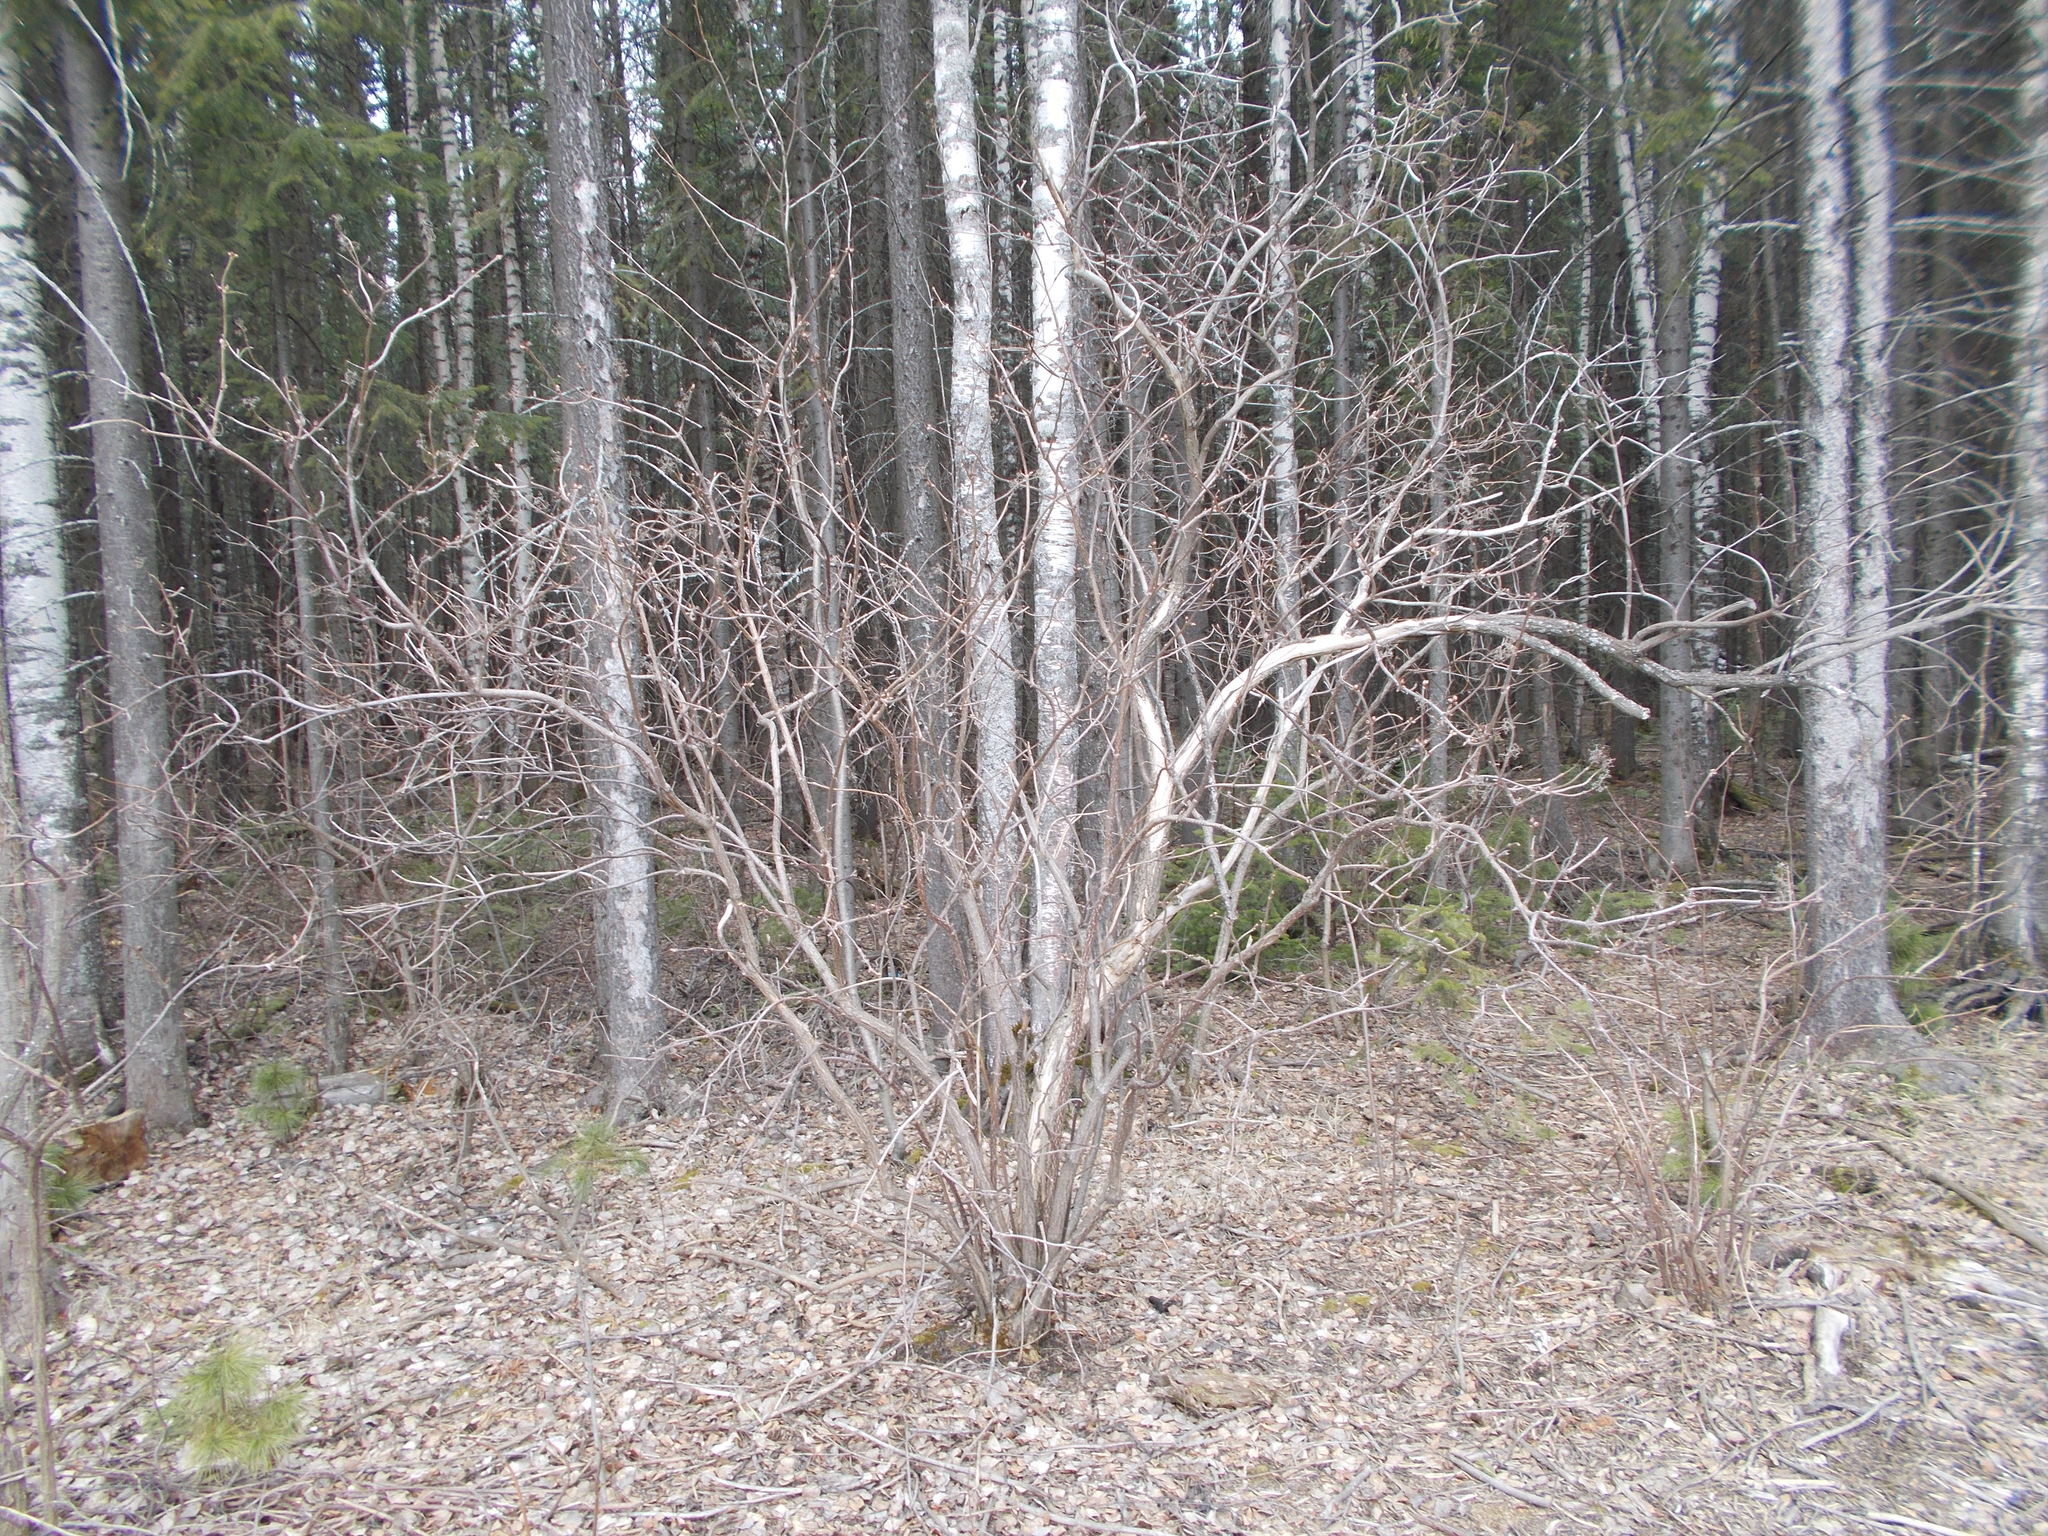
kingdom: Plantae
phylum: Tracheophyta
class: Magnoliopsida
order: Dipsacales
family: Viburnaceae
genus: Sambucus
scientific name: Sambucus sibirica
